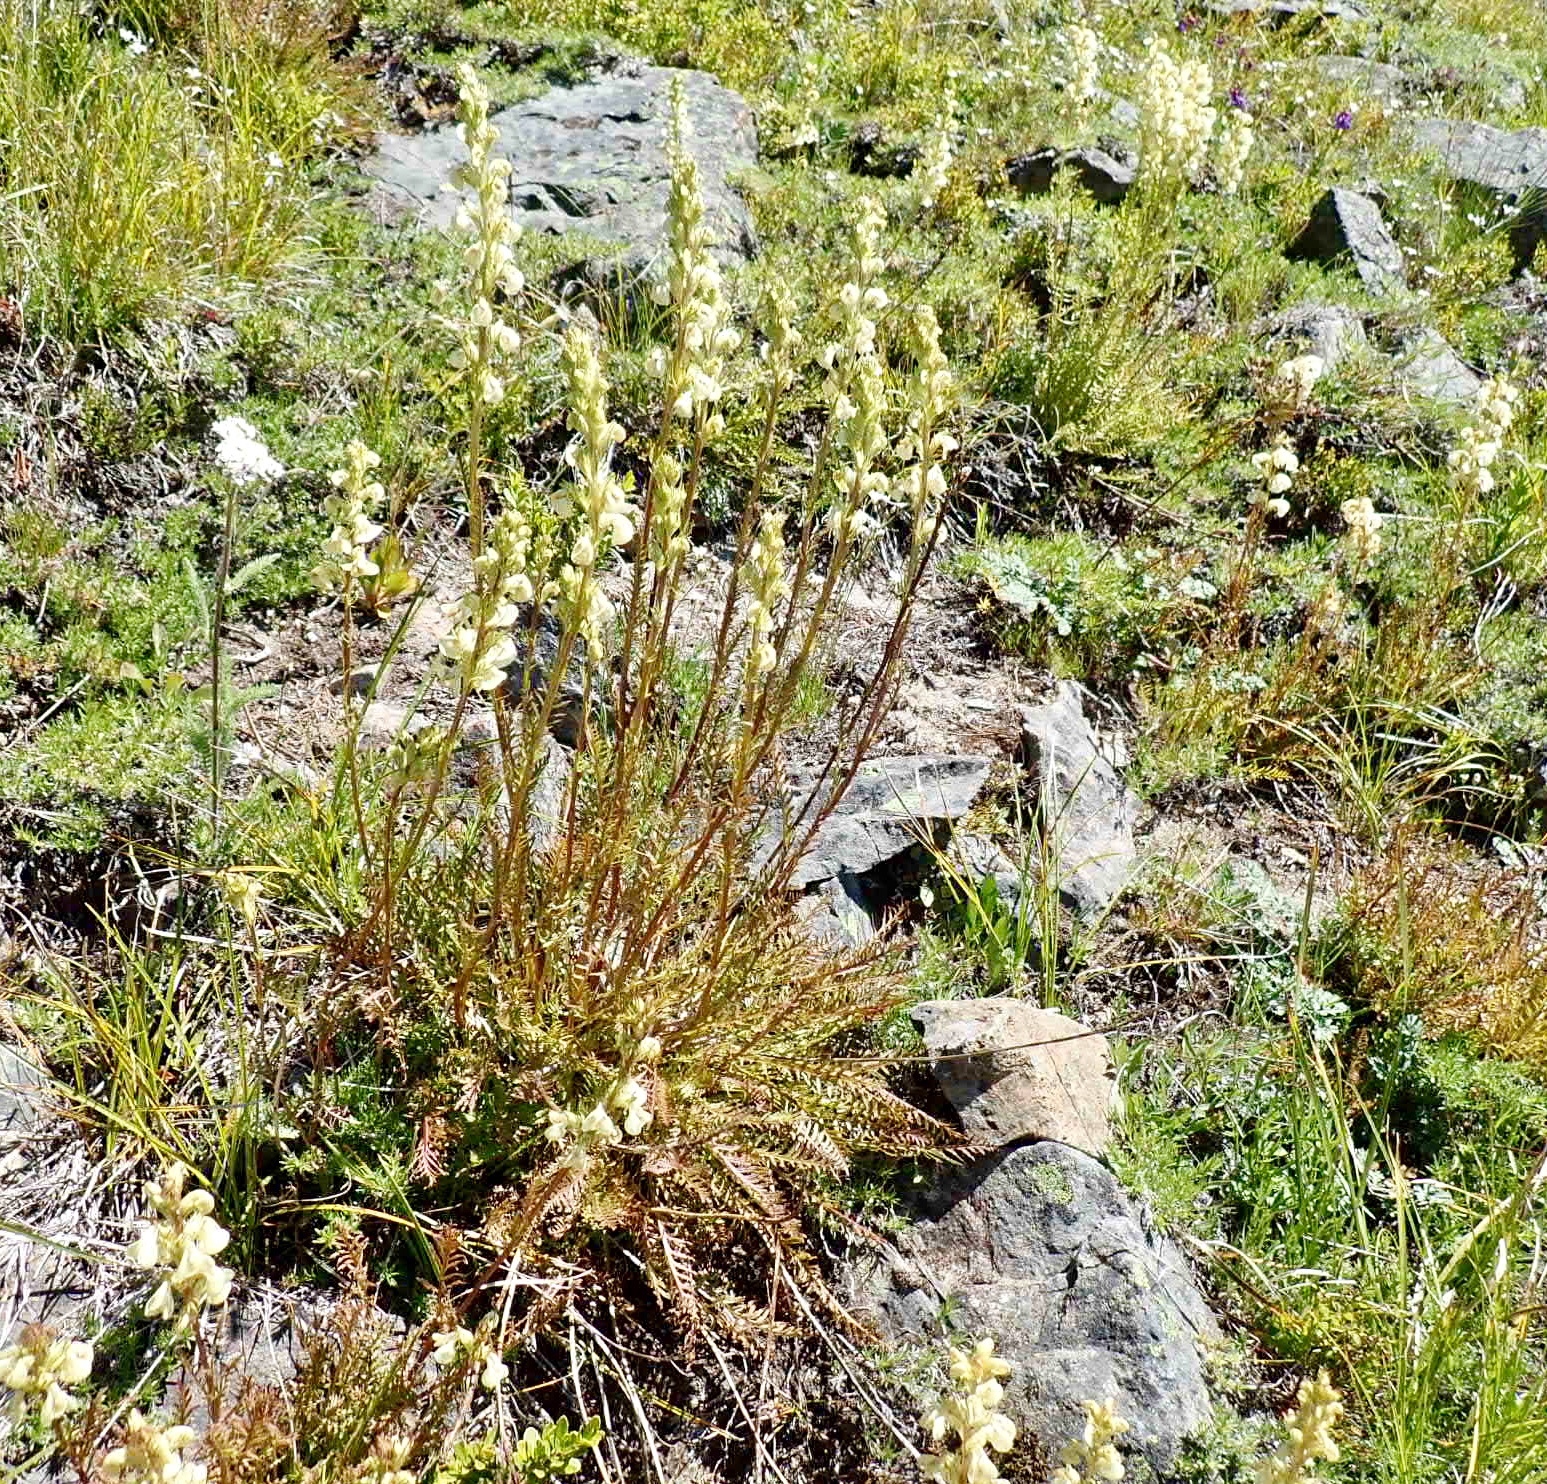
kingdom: Plantae
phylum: Tracheophyta
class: Magnoliopsida
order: Lamiales
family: Orobanchaceae
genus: Pedicularis
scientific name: Pedicularis contorta
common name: Coiled lousewort
